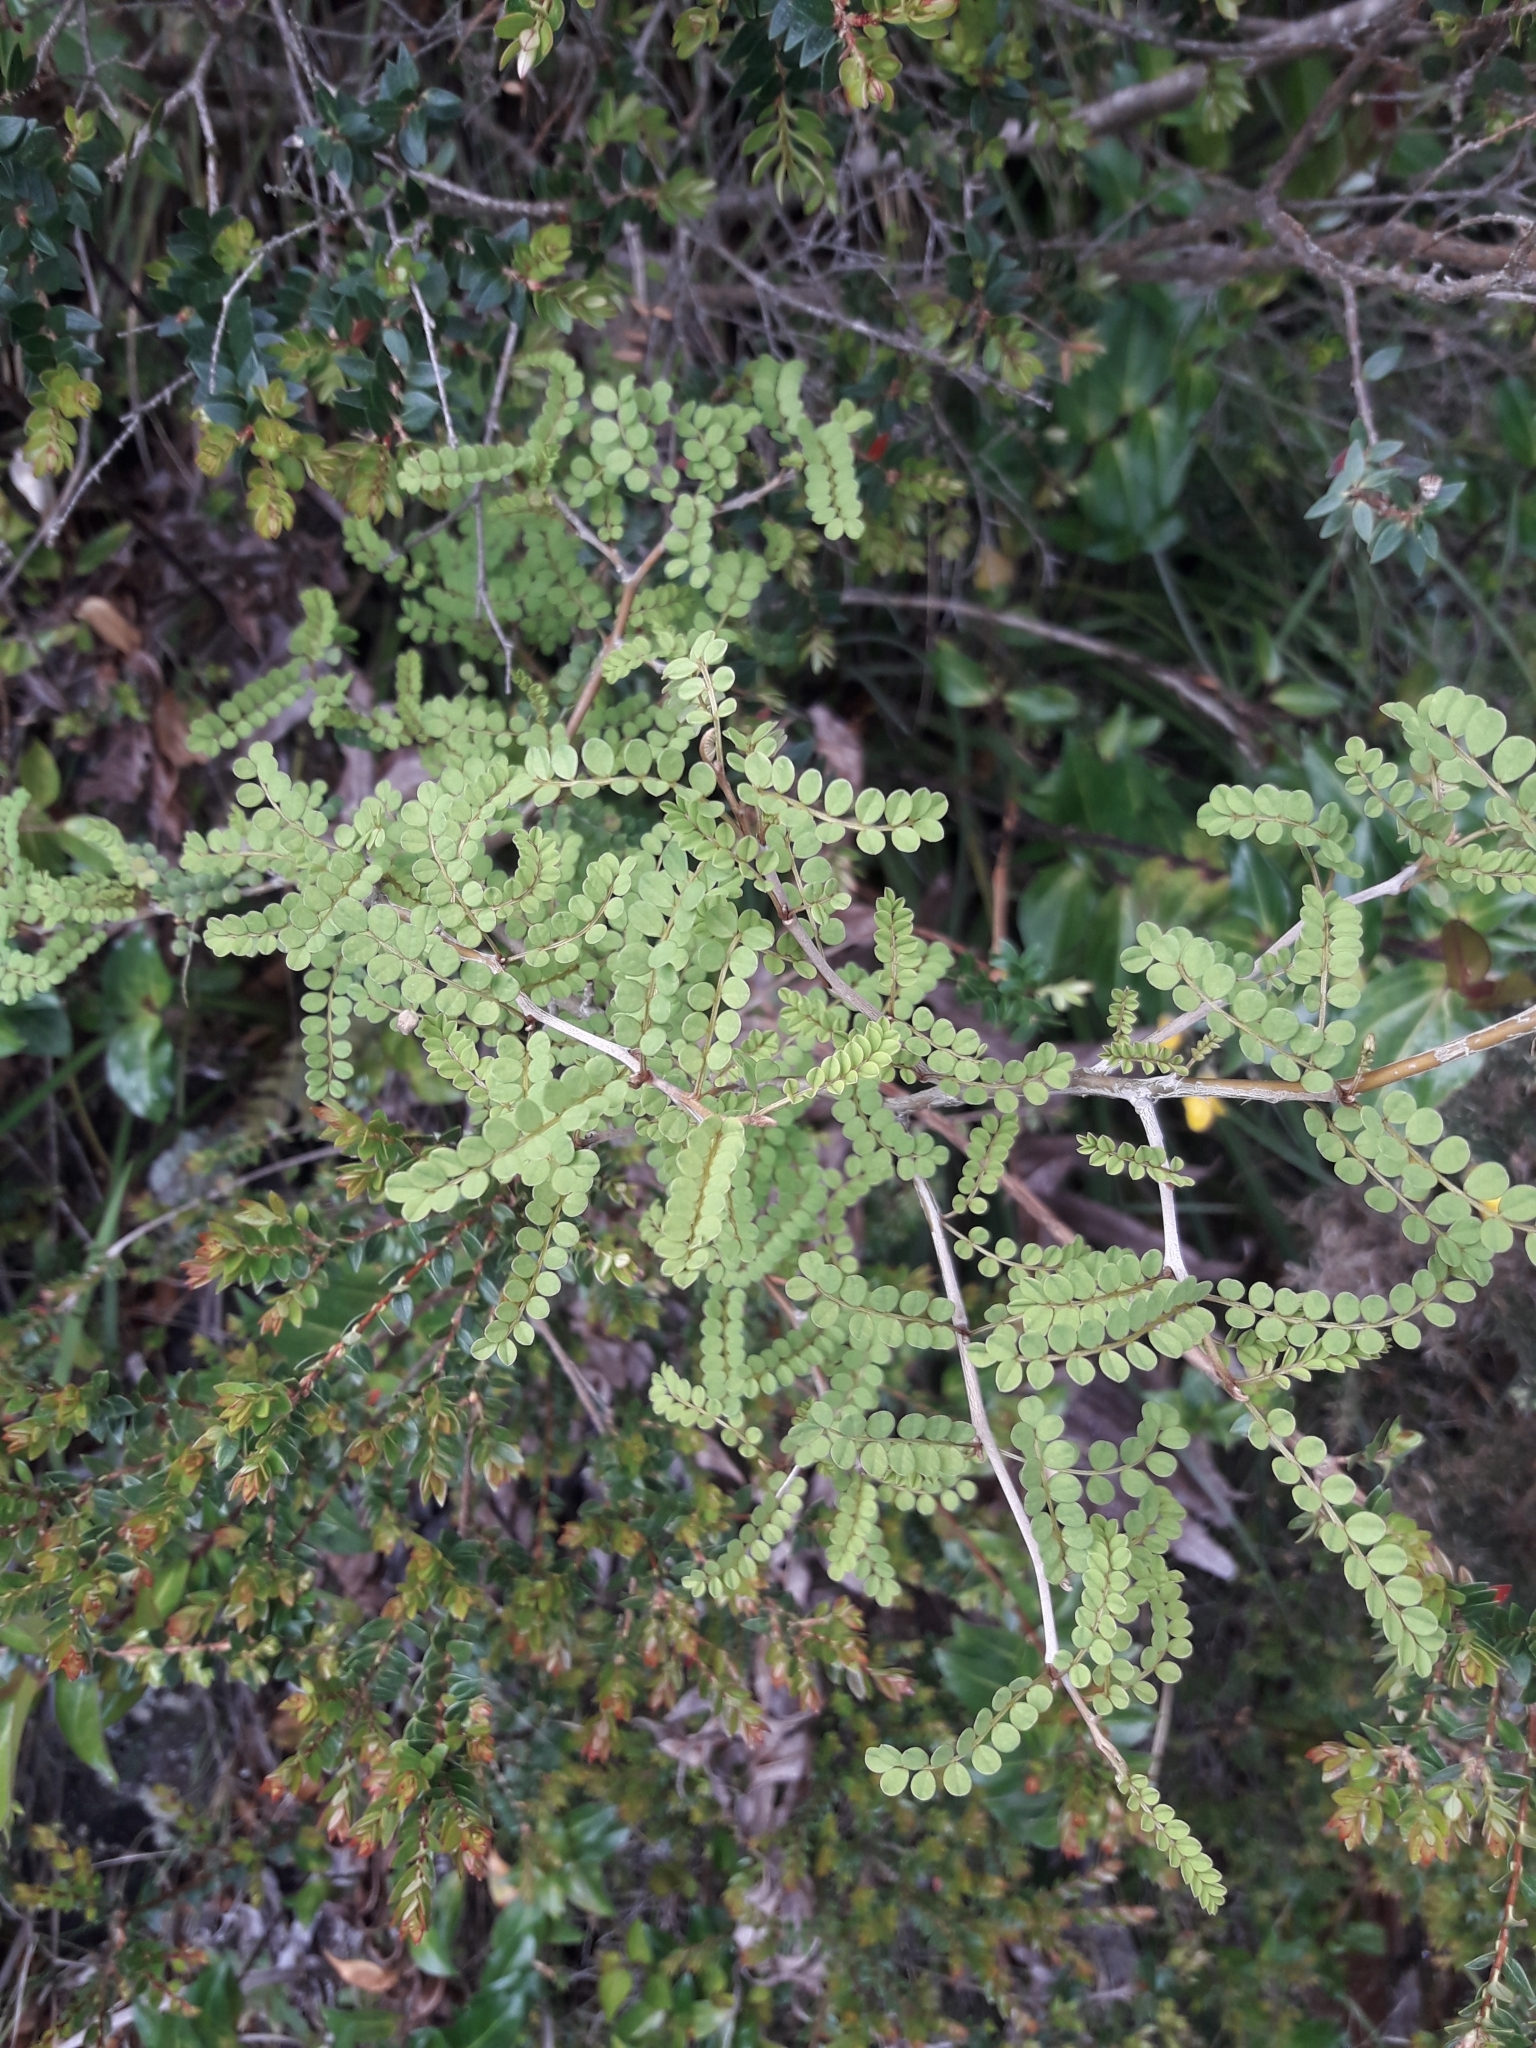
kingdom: Plantae
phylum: Tracheophyta
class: Magnoliopsida
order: Fabales
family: Fabaceae
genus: Sophora
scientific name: Sophora cassioides
